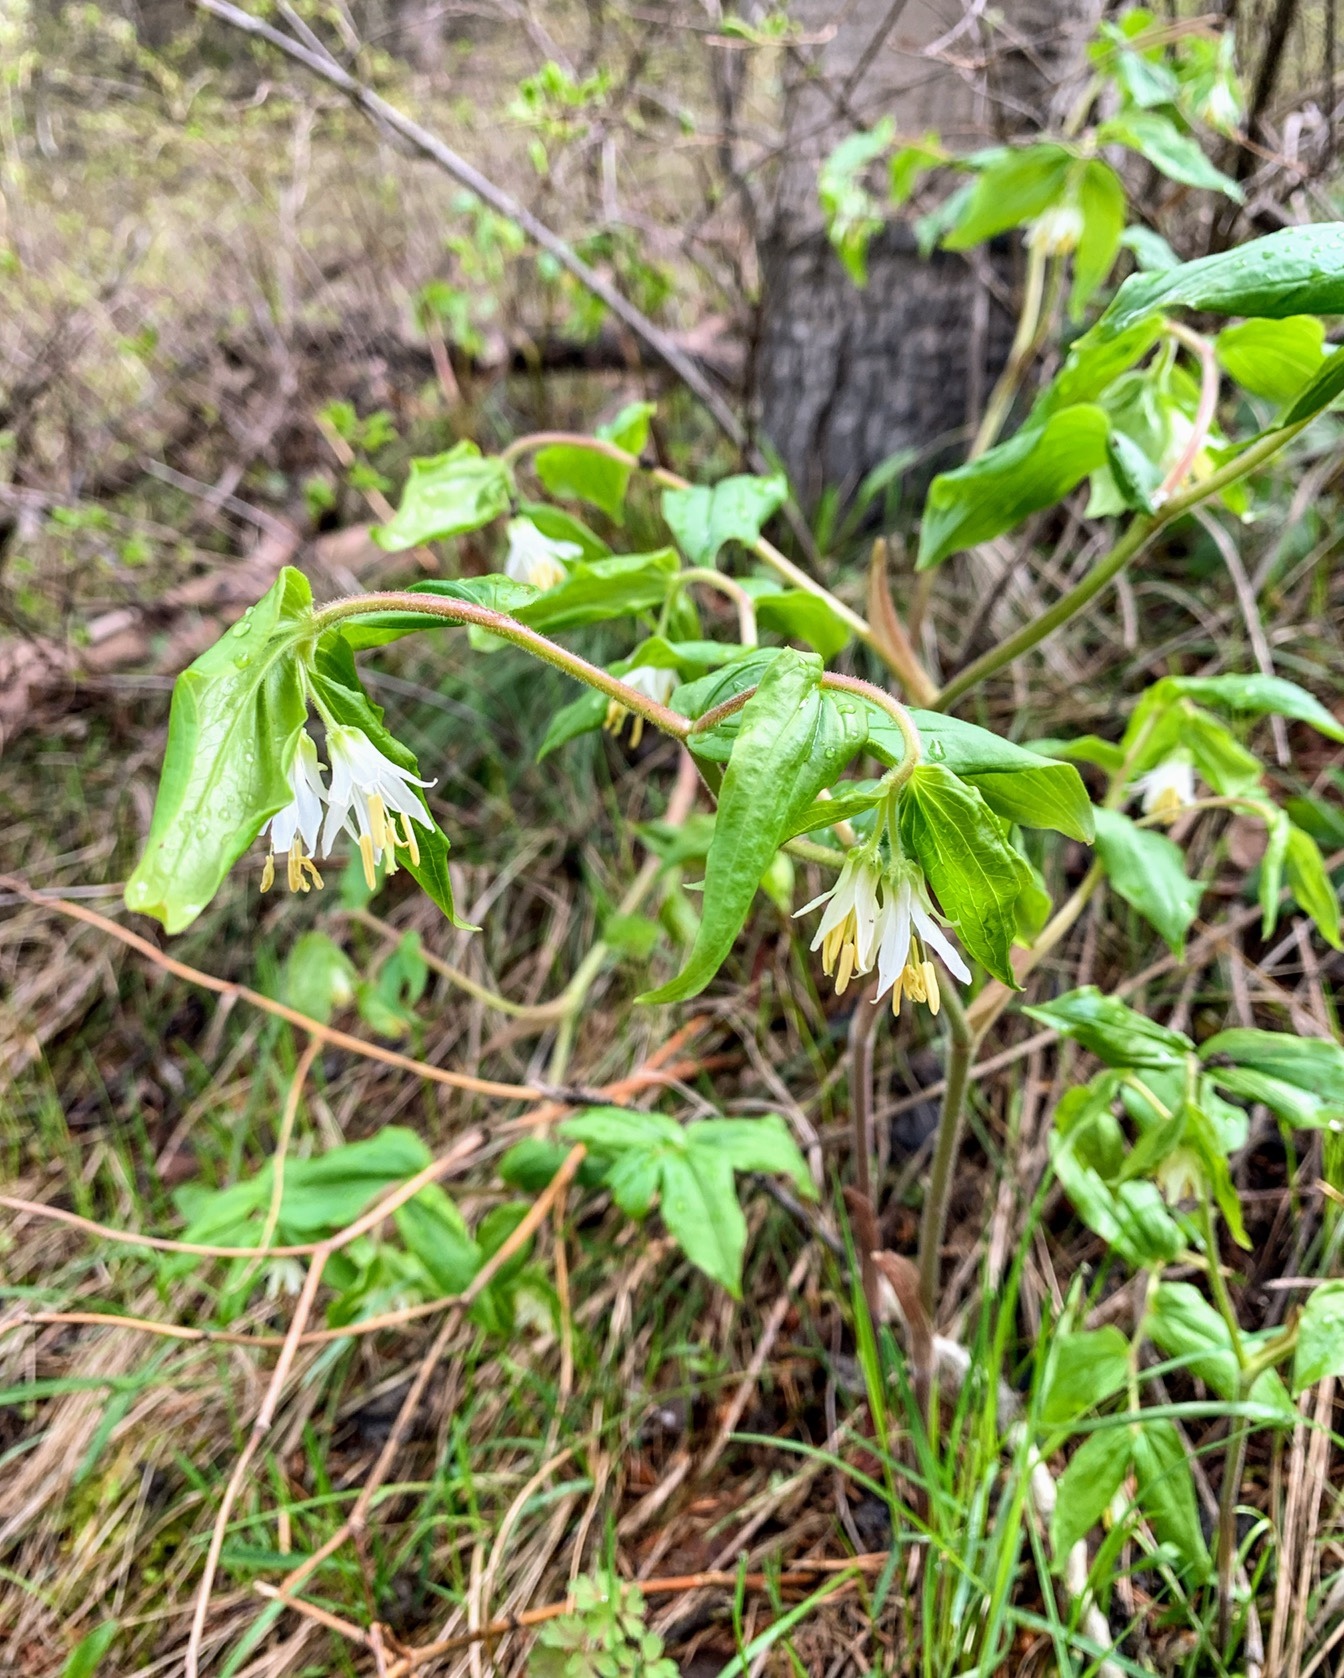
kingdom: Plantae
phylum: Tracheophyta
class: Liliopsida
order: Liliales
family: Liliaceae
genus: Prosartes
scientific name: Prosartes trachycarpa
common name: Rough-fruit fairy-bells
